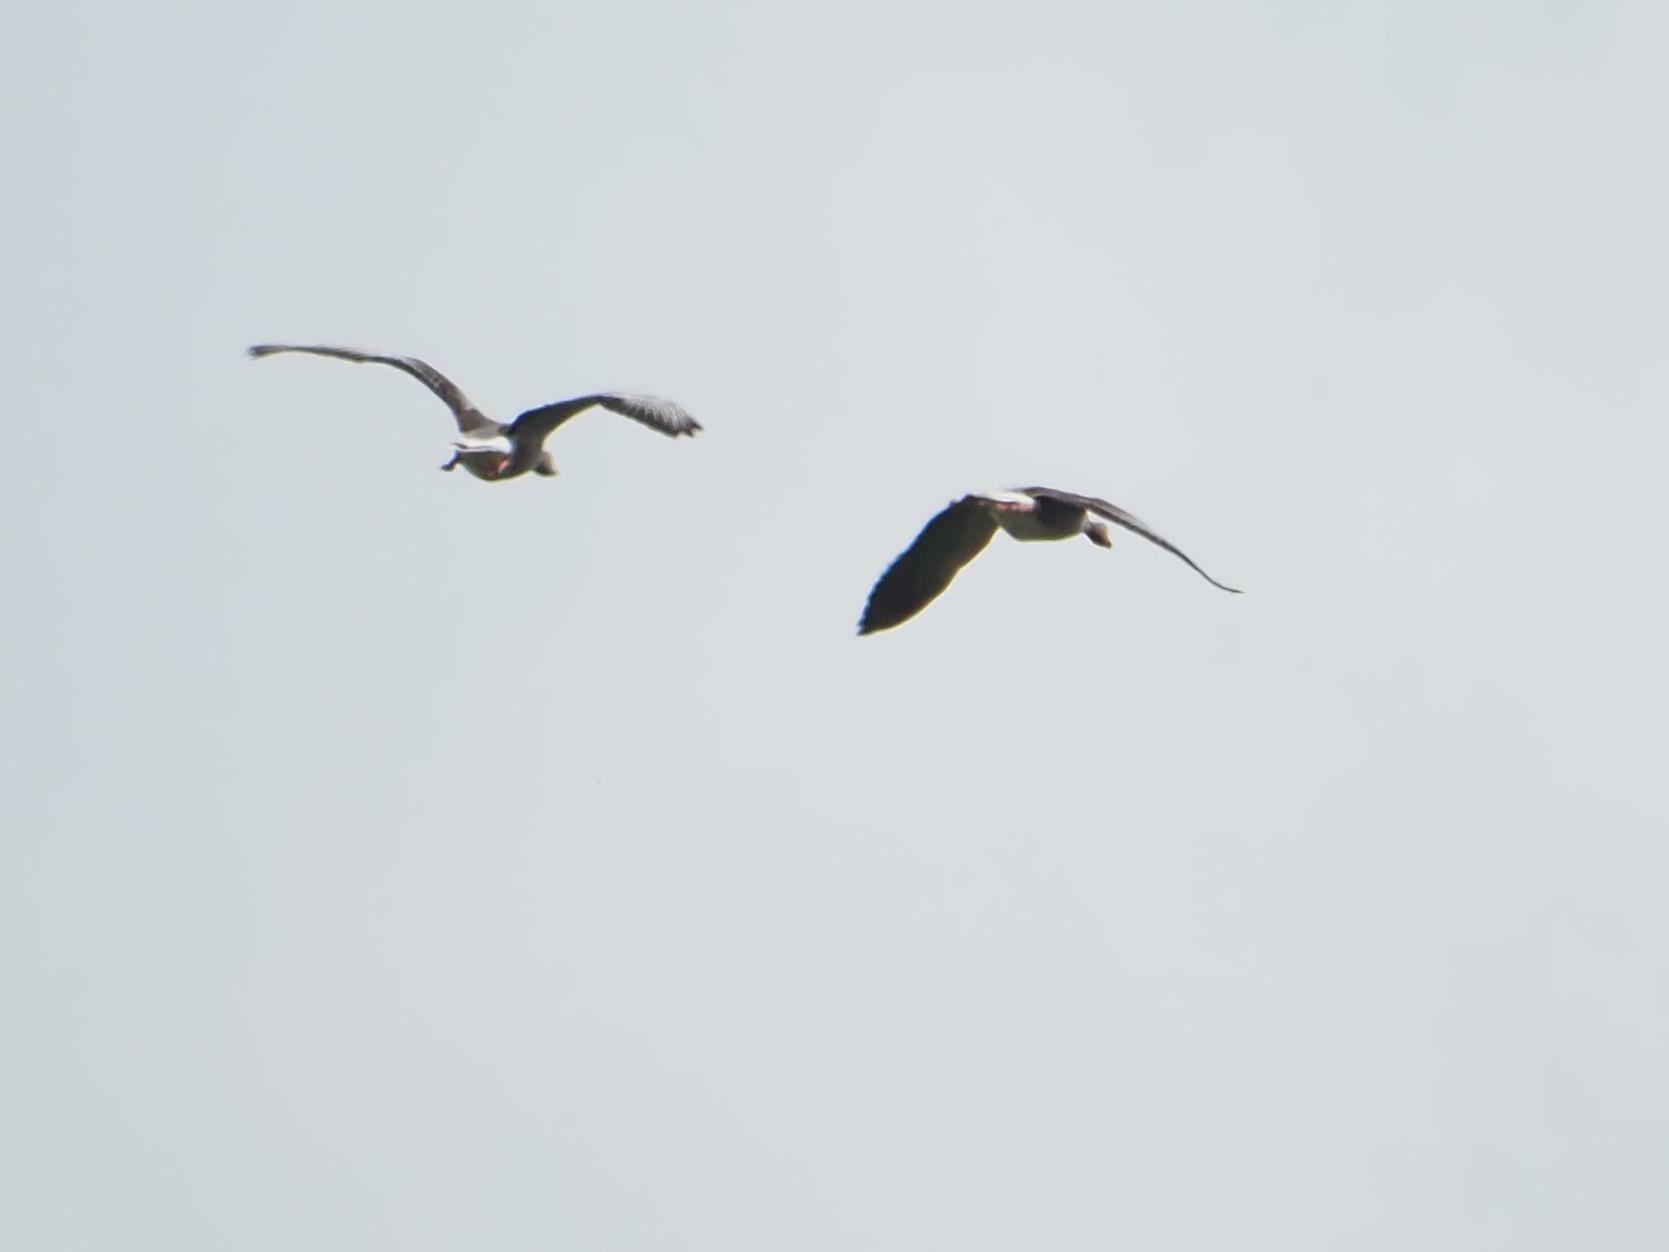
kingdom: Animalia
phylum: Chordata
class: Aves
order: Anseriformes
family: Anatidae
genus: Anser
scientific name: Anser anser
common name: Greylag goose
